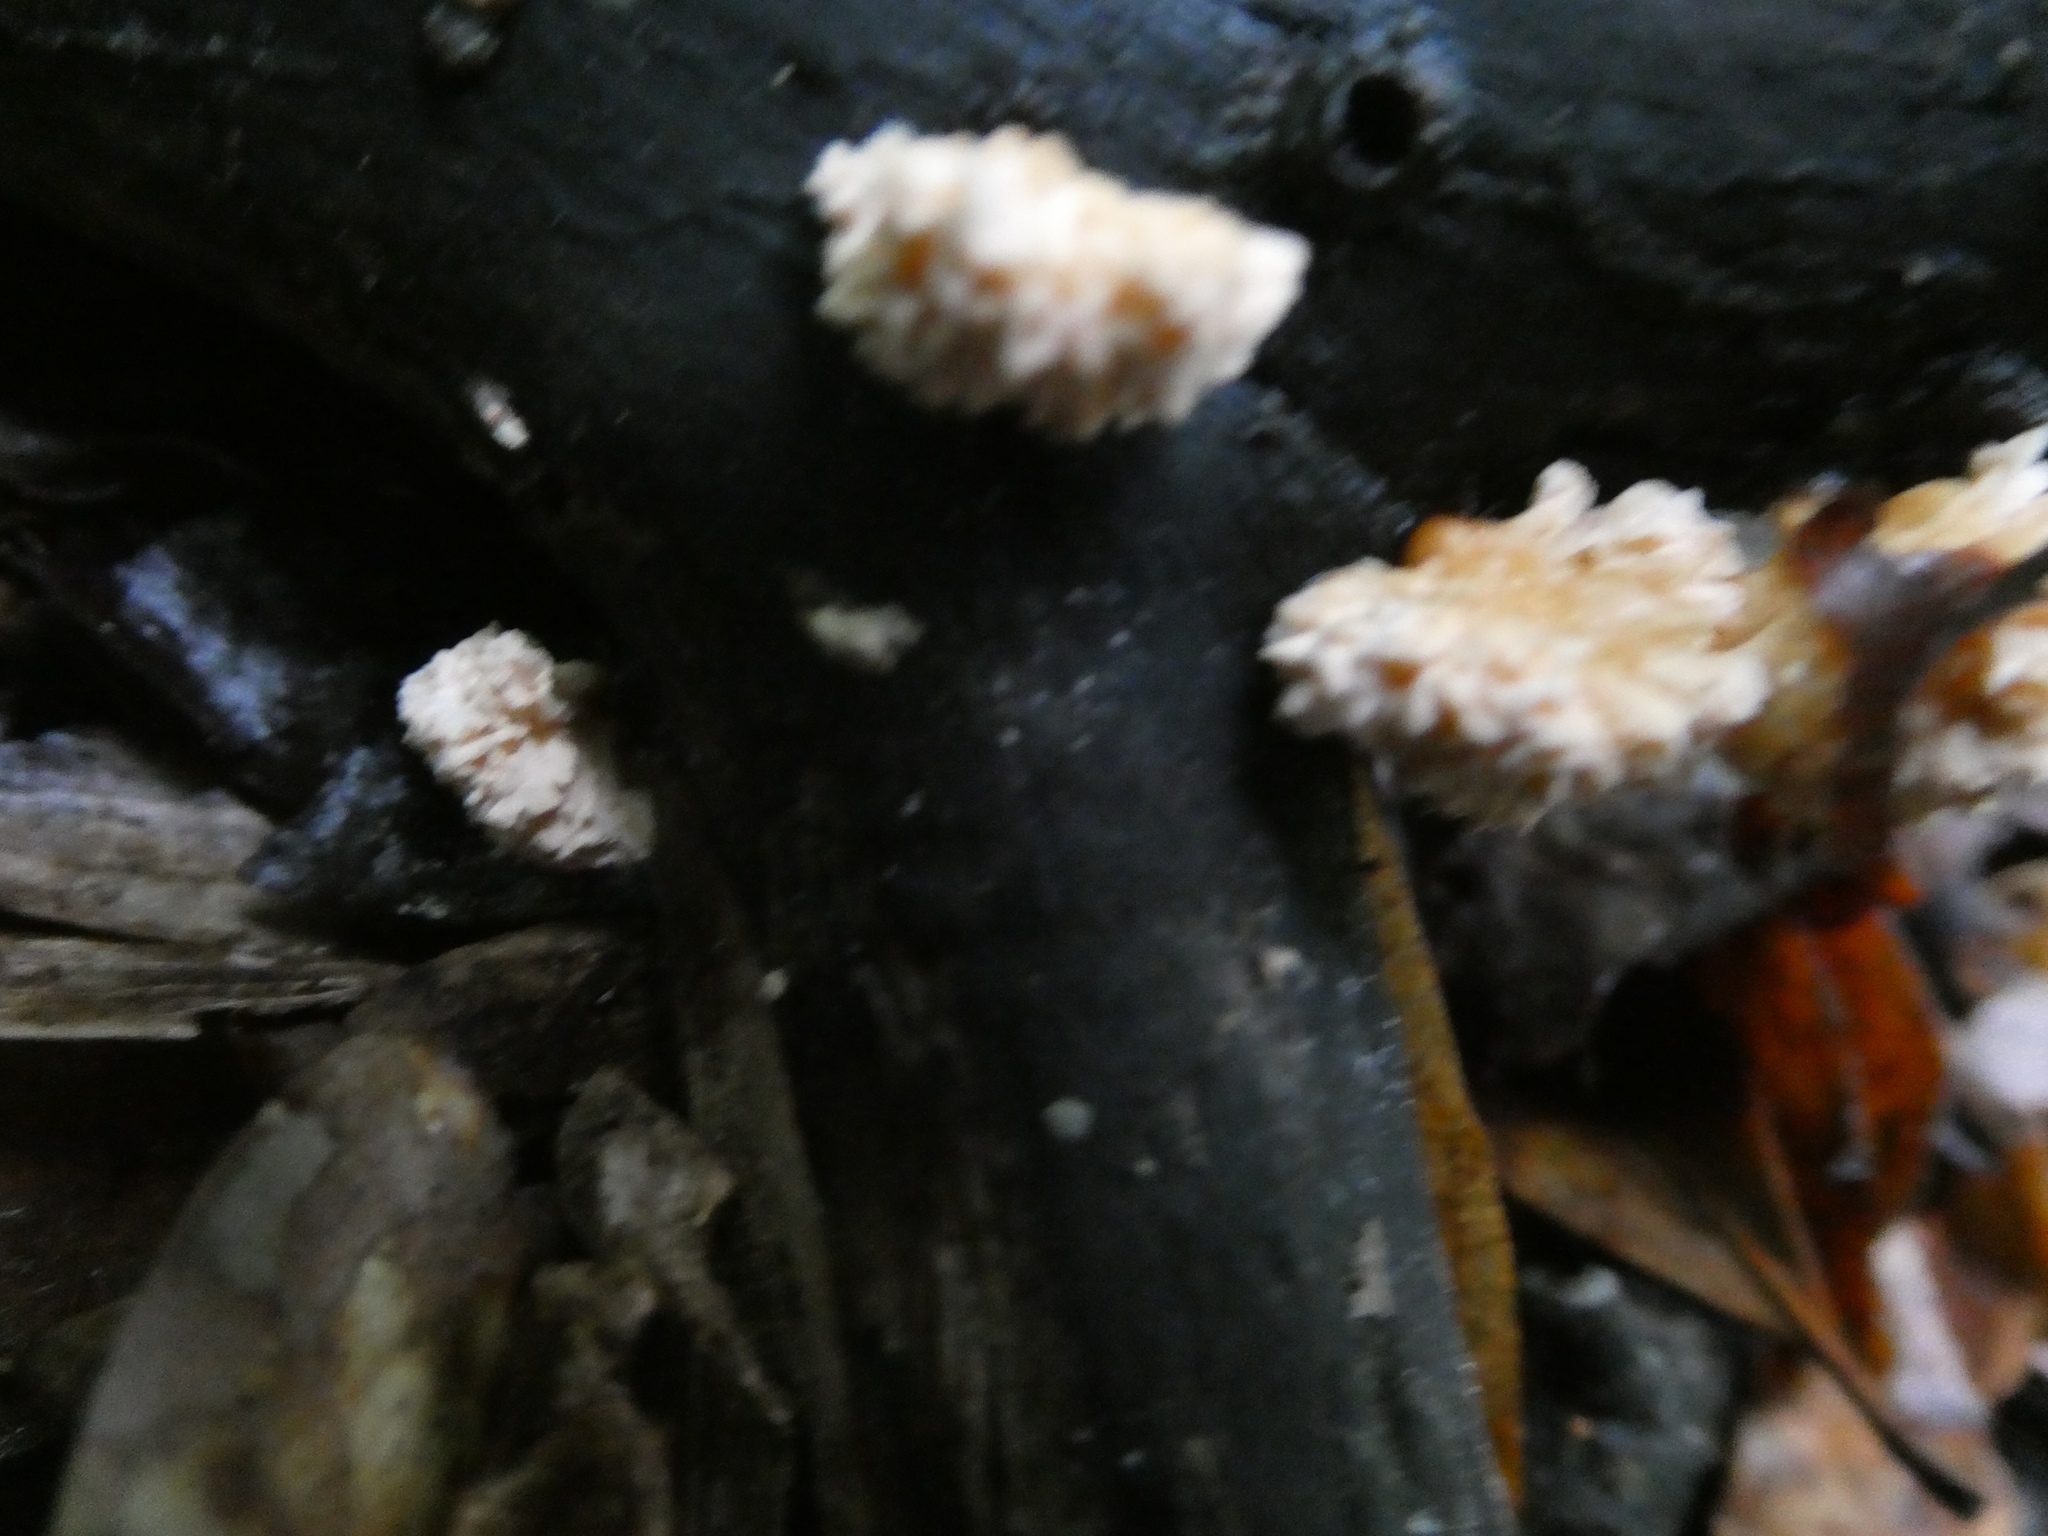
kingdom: Fungi
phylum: Ascomycota
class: Sordariomycetes
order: Xylariales
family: Xylariaceae
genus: Xylaria
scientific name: Xylaria cubensis
